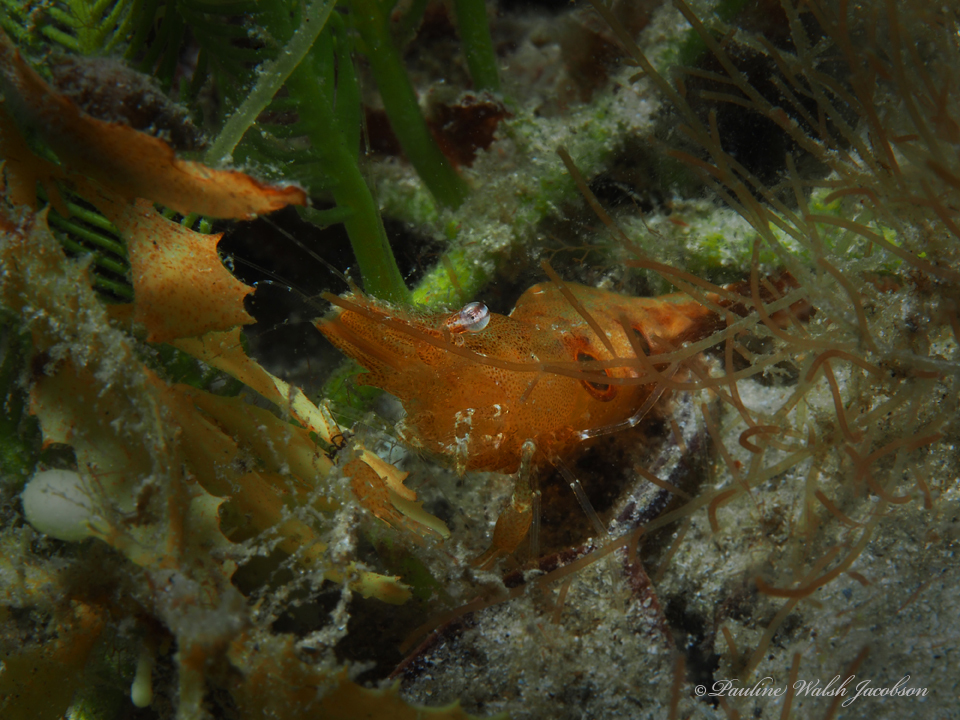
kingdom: Animalia
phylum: Arthropoda
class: Malacostraca
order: Decapoda
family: Palaemonidae
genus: Leander
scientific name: Leander tenuicornis
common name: Brown glass shrimp
